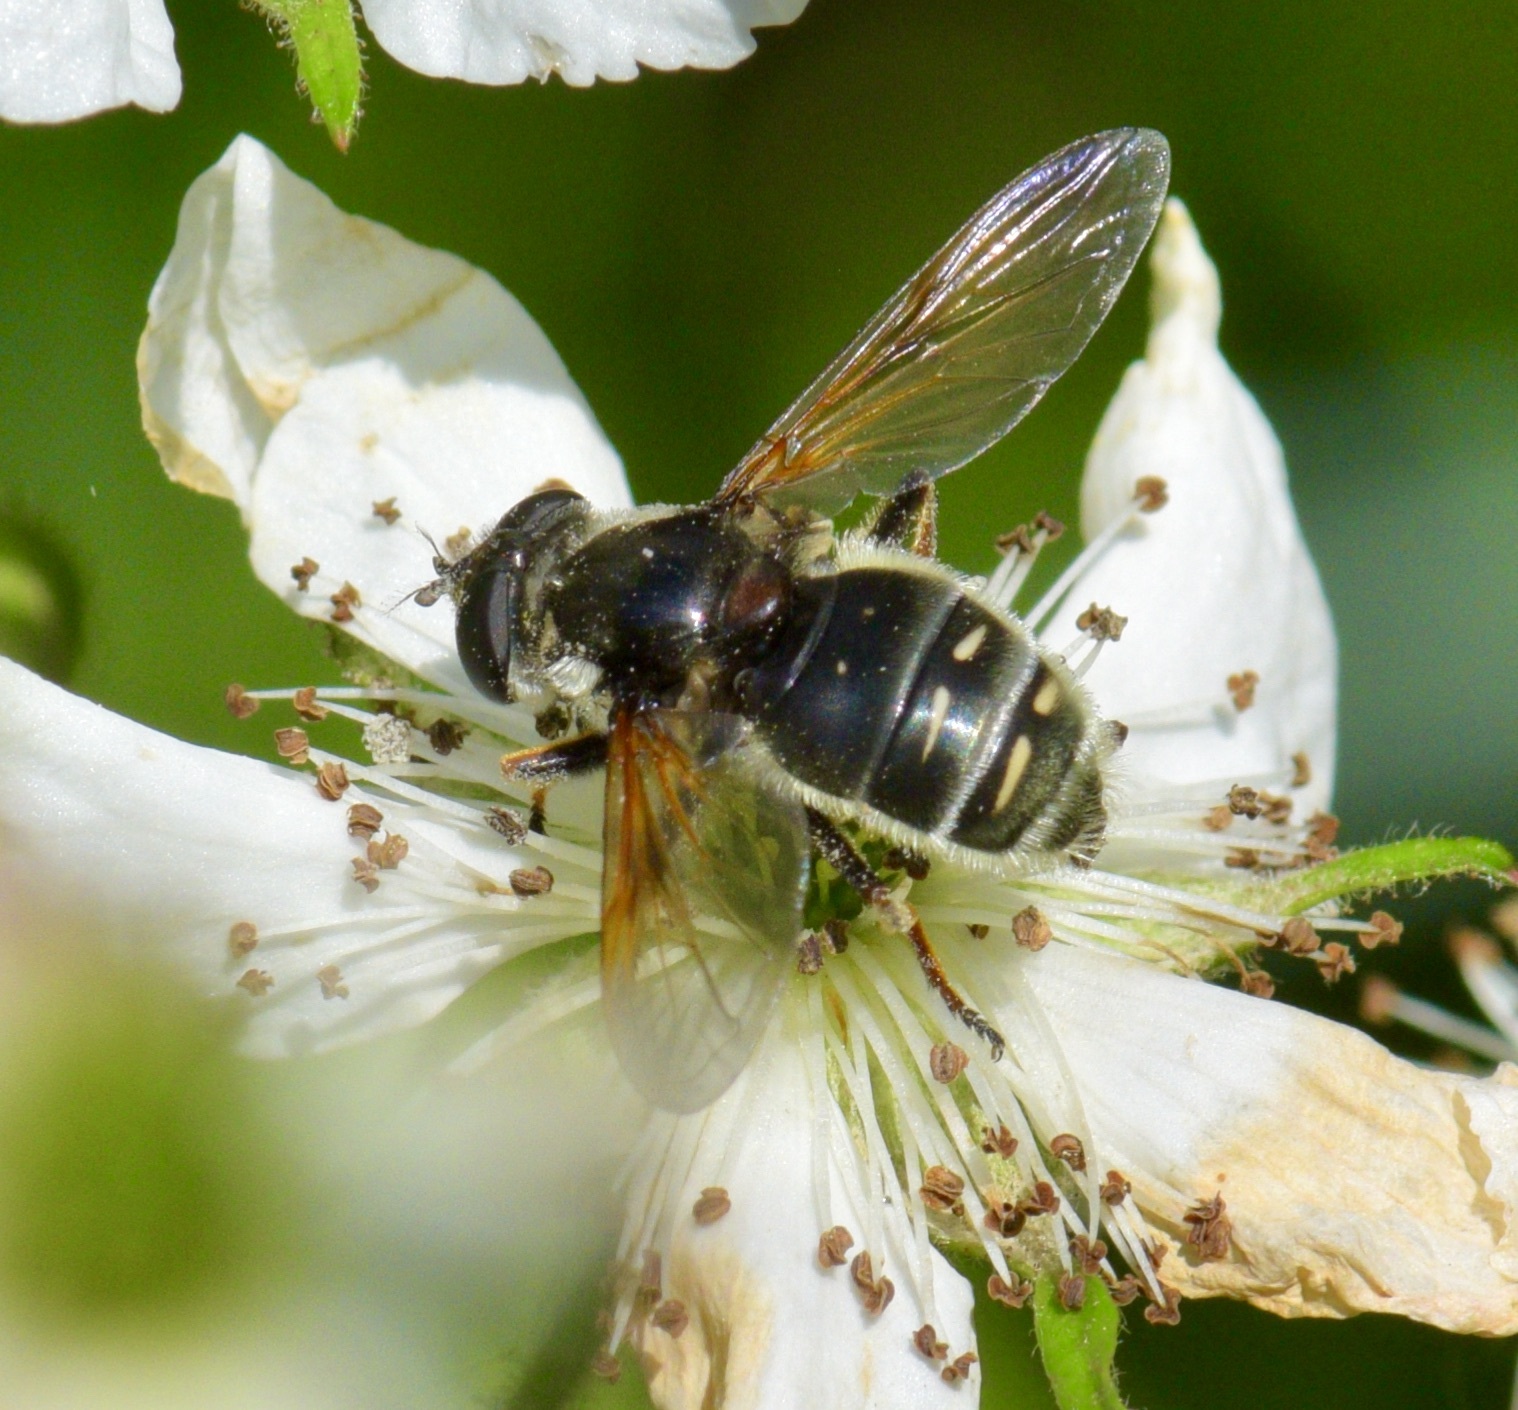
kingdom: Animalia
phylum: Arthropoda
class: Insecta
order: Diptera
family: Syrphidae
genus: Sericomyia
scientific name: Sericomyia militaris
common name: Narrow-banded pond fly
